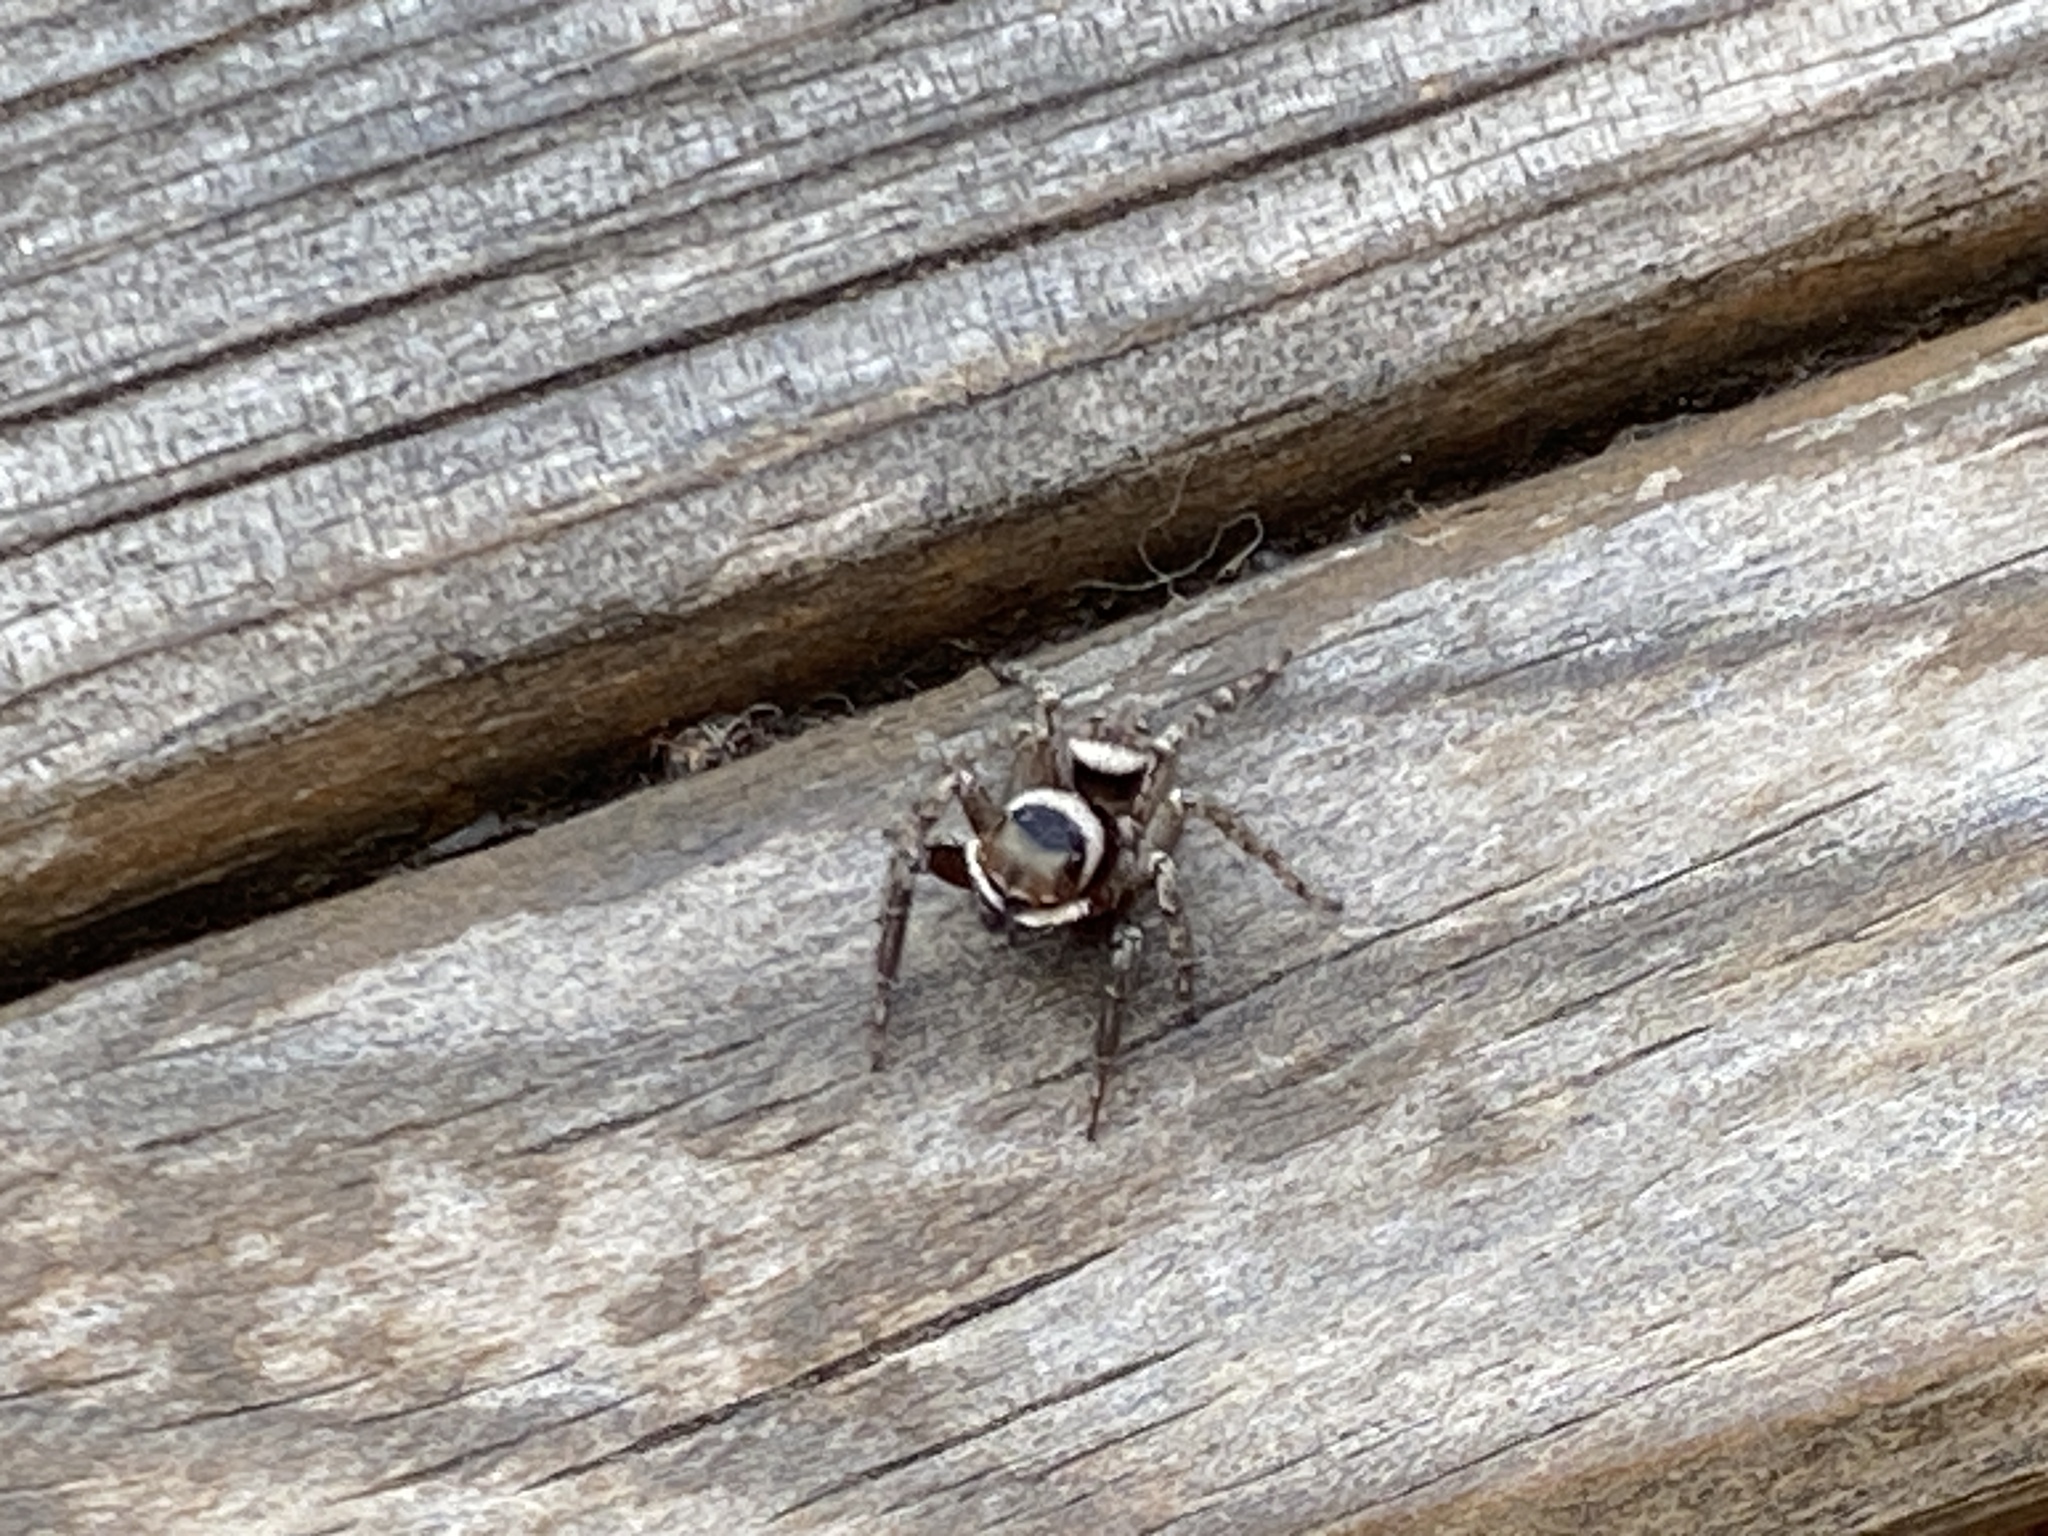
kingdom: Animalia
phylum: Arthropoda
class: Arachnida
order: Araneae
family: Salticidae
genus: Hasarius
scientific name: Hasarius adansoni
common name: Jumping spider
